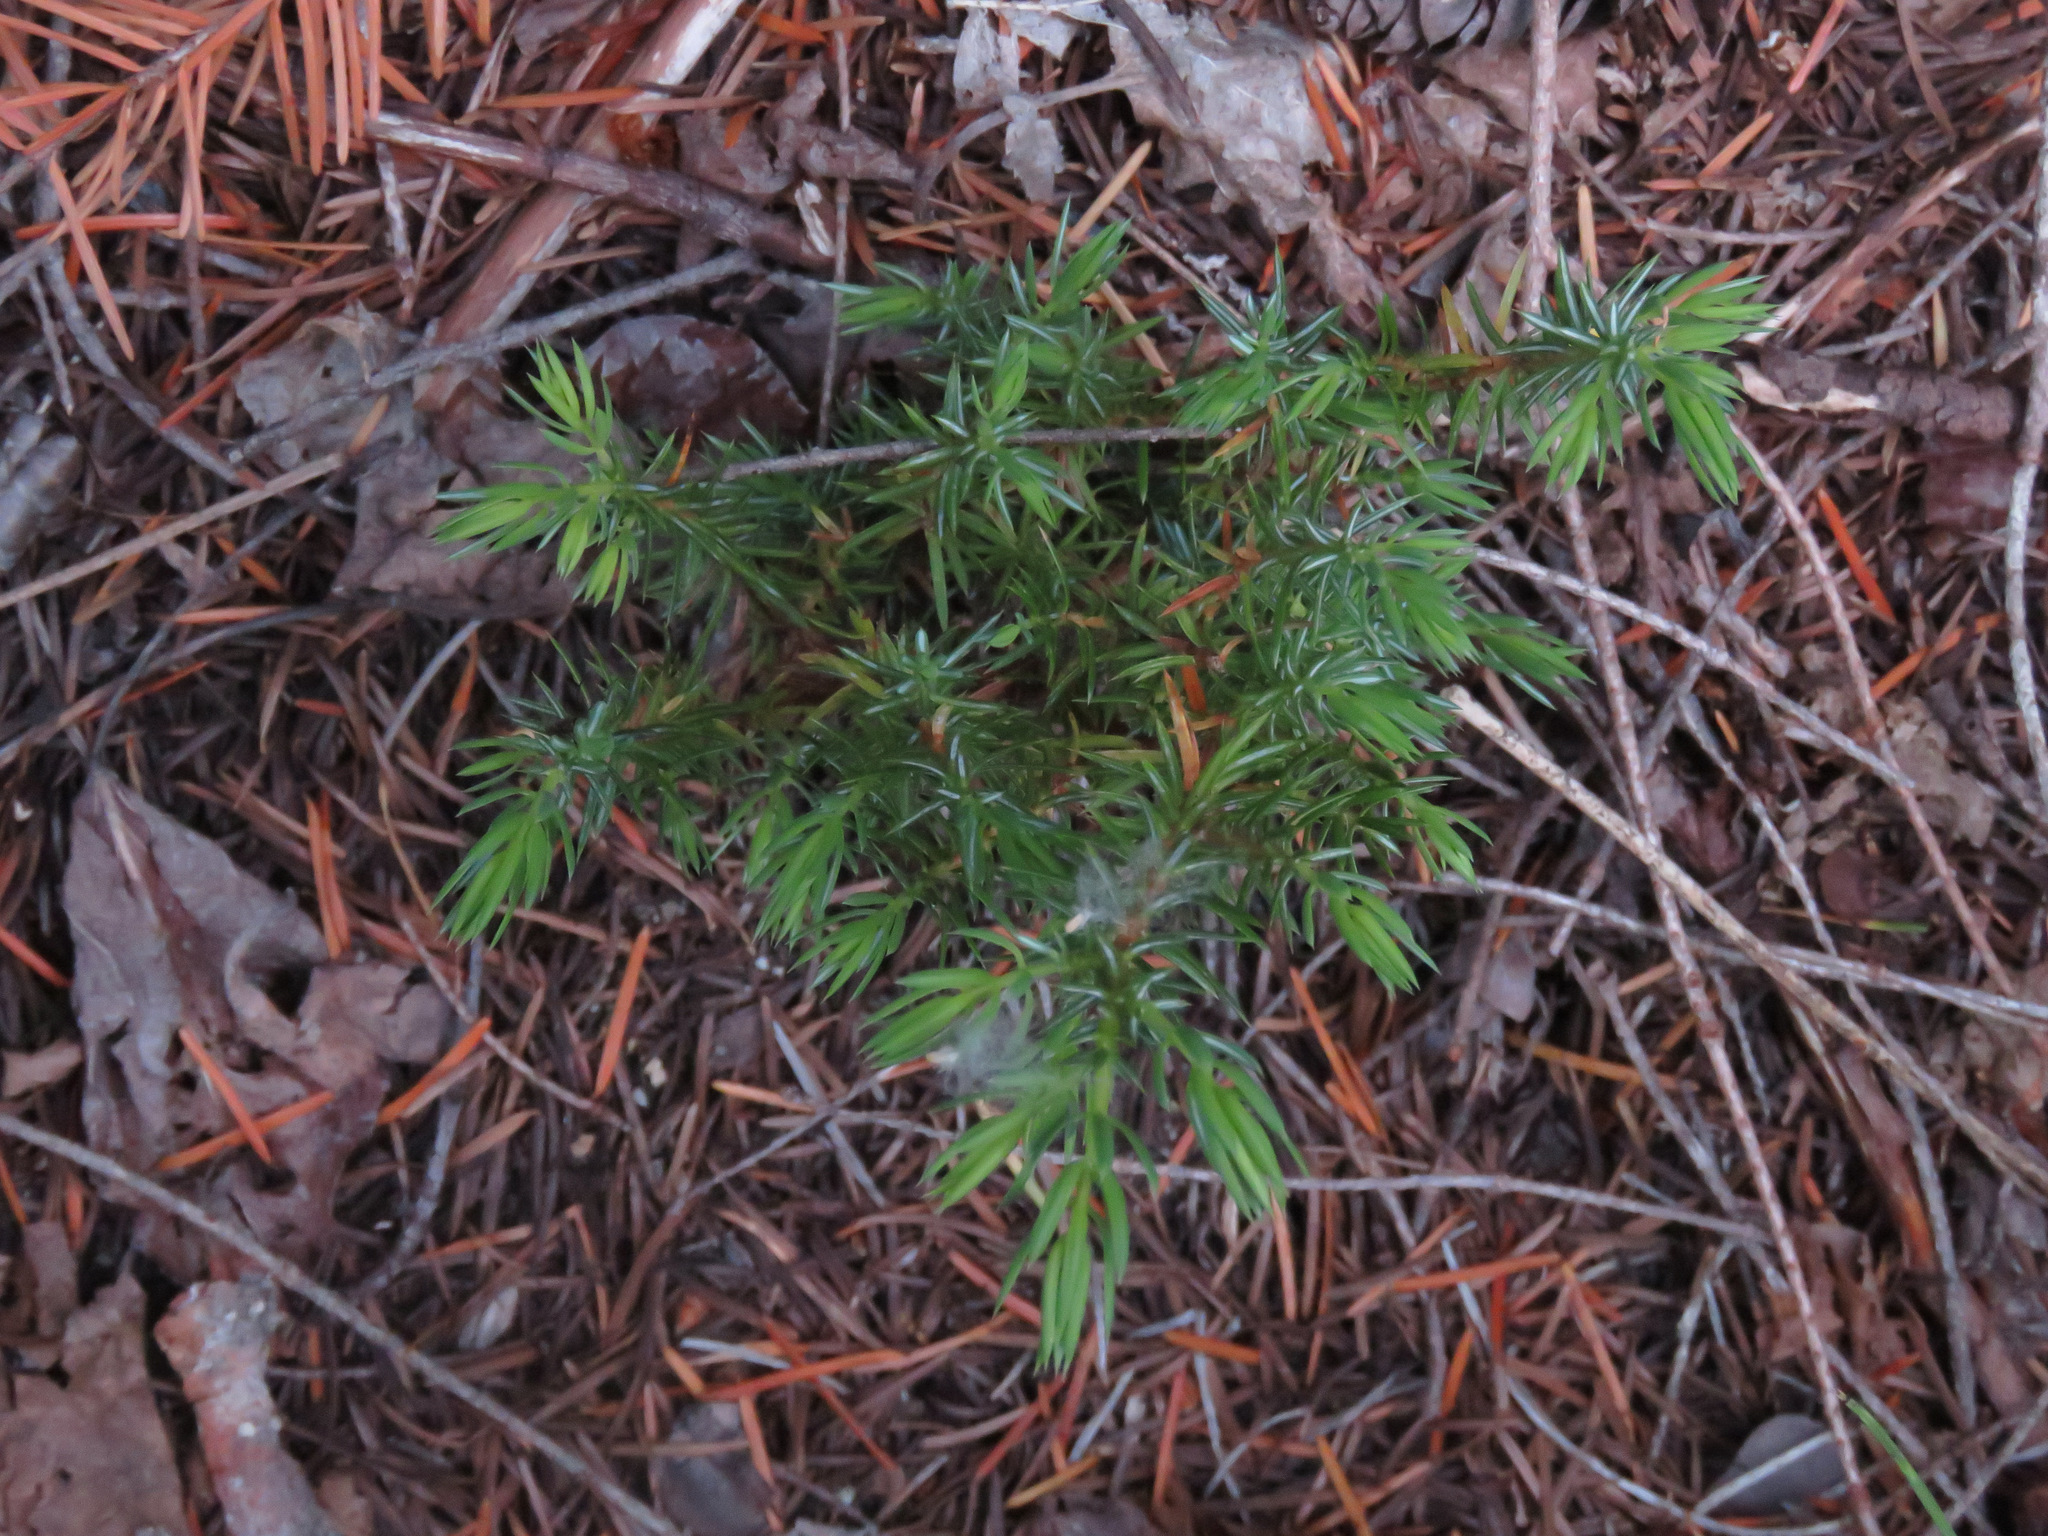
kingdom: Plantae
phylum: Tracheophyta
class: Pinopsida
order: Pinales
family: Cupressaceae
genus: Juniperus
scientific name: Juniperus communis
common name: Common juniper
